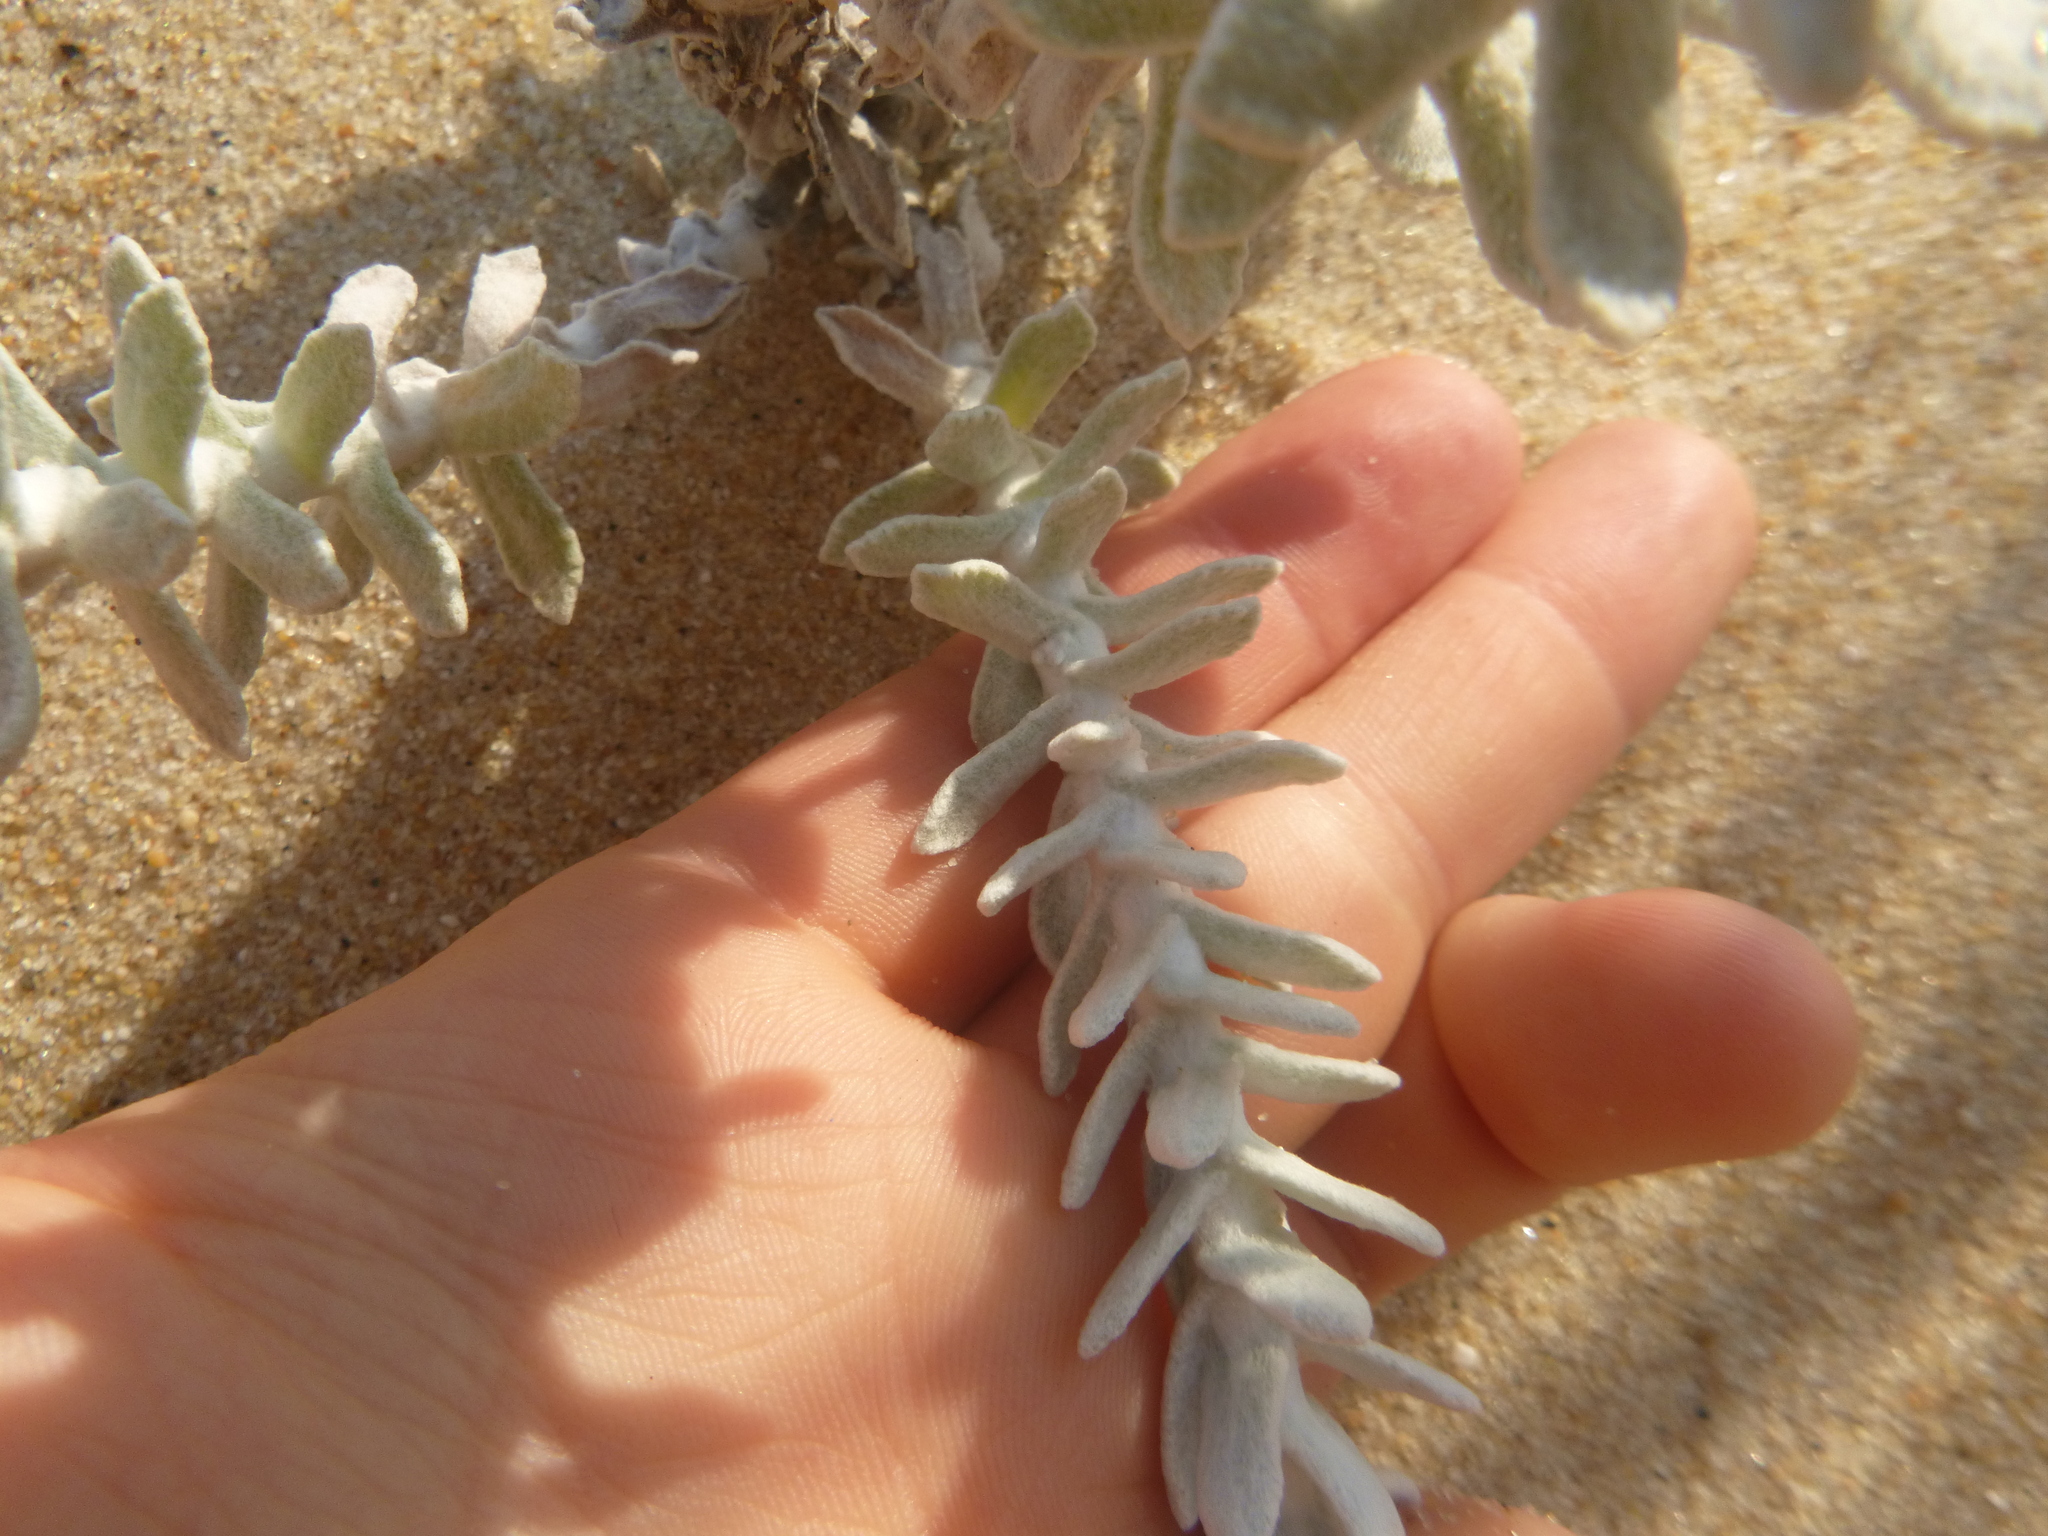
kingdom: Plantae
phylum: Tracheophyta
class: Magnoliopsida
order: Asterales
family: Asteraceae
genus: Achillea
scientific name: Achillea maritima
